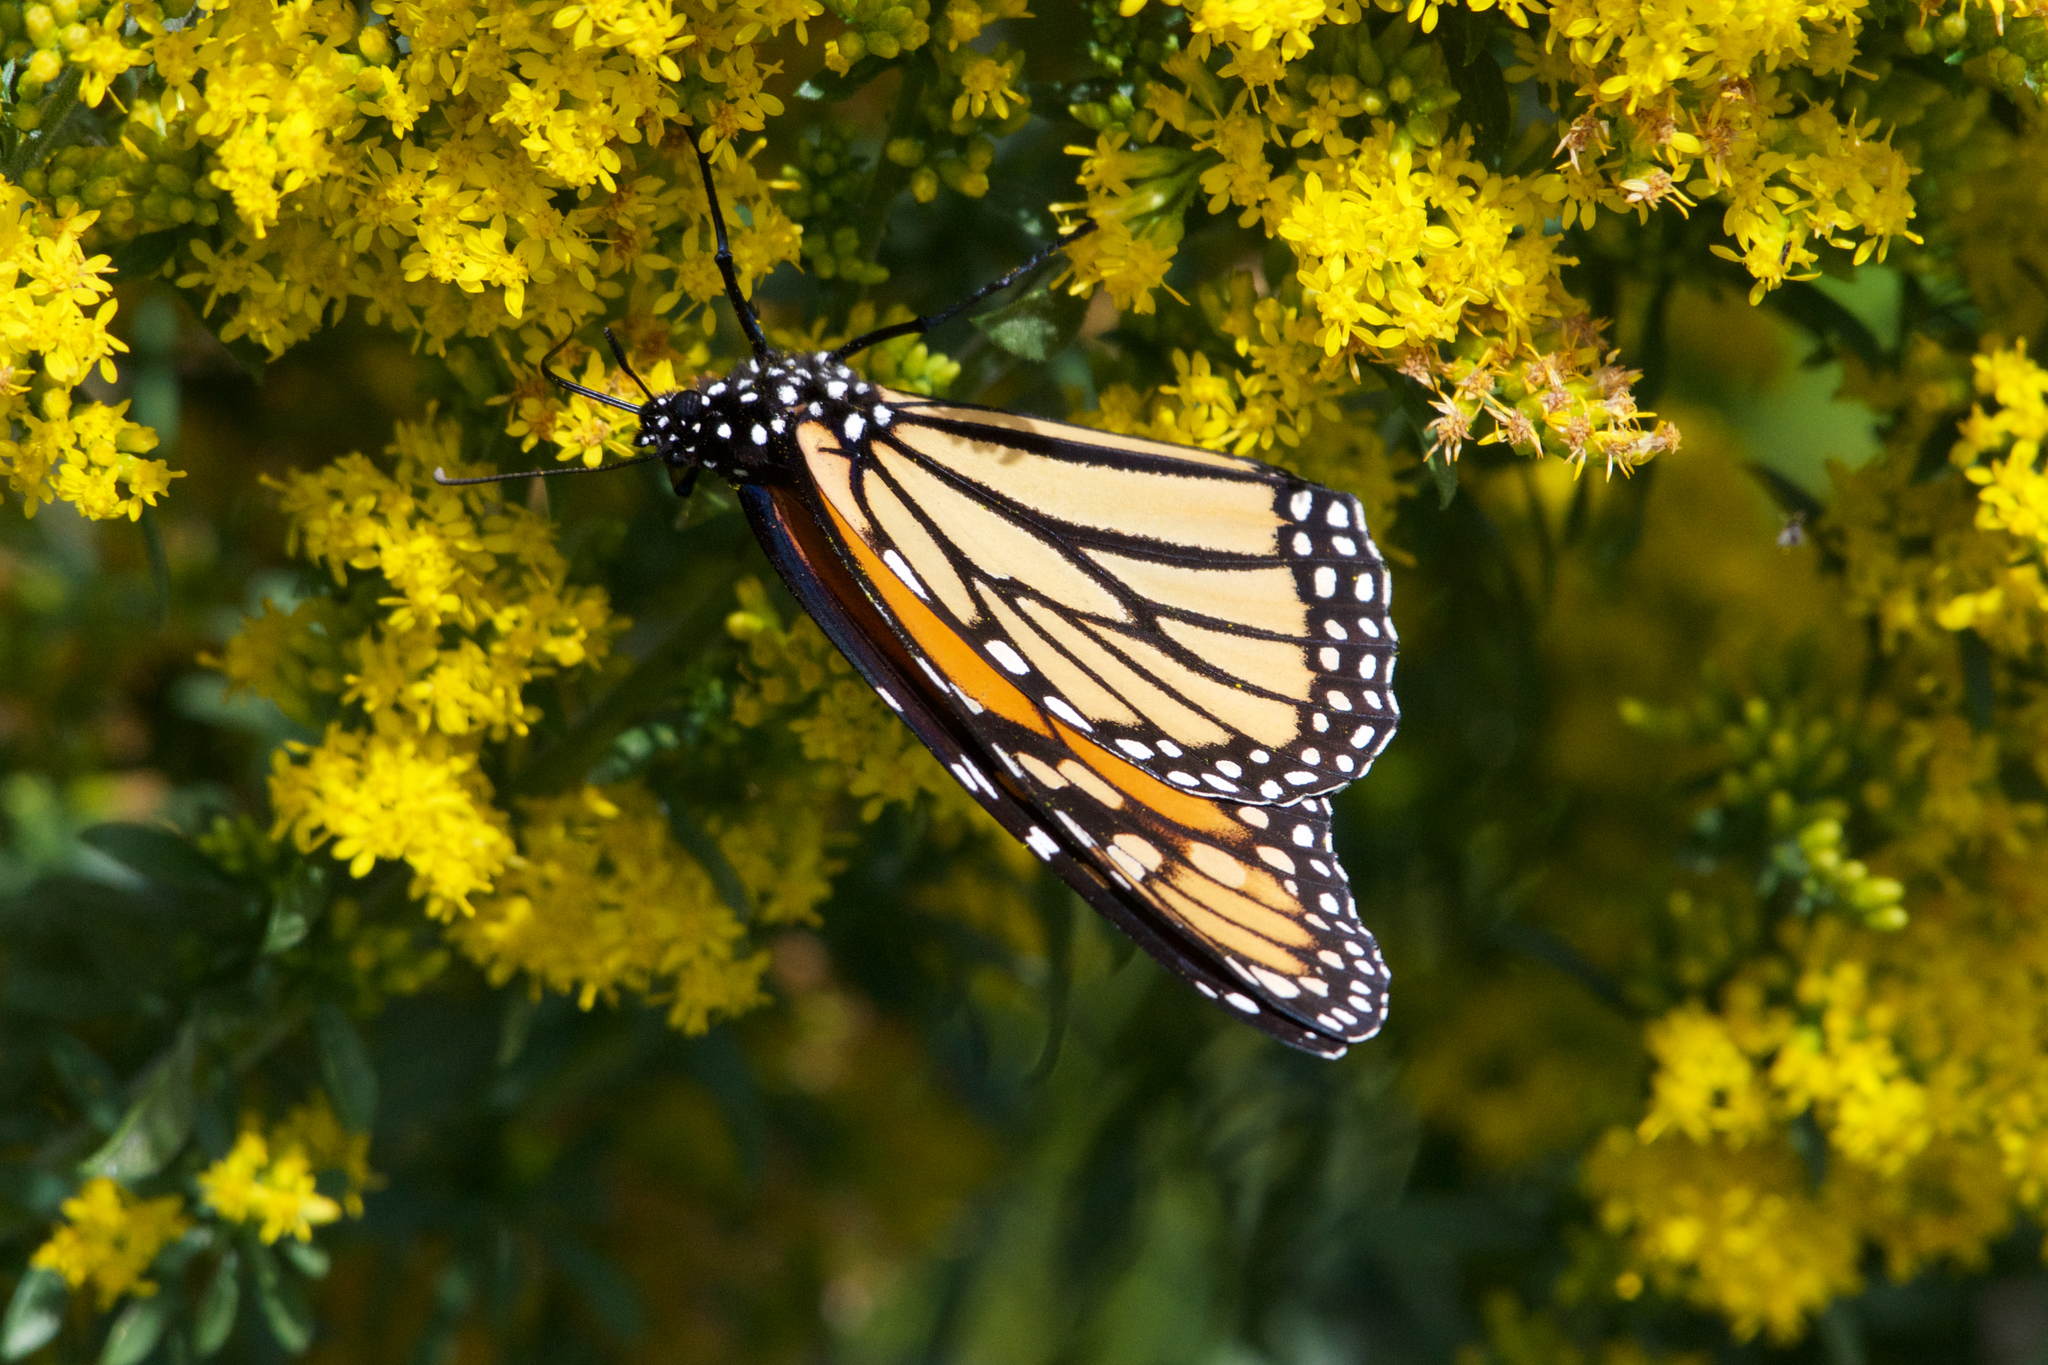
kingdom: Animalia
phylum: Arthropoda
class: Insecta
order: Lepidoptera
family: Nymphalidae
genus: Danaus
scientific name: Danaus plexippus
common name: Monarch
